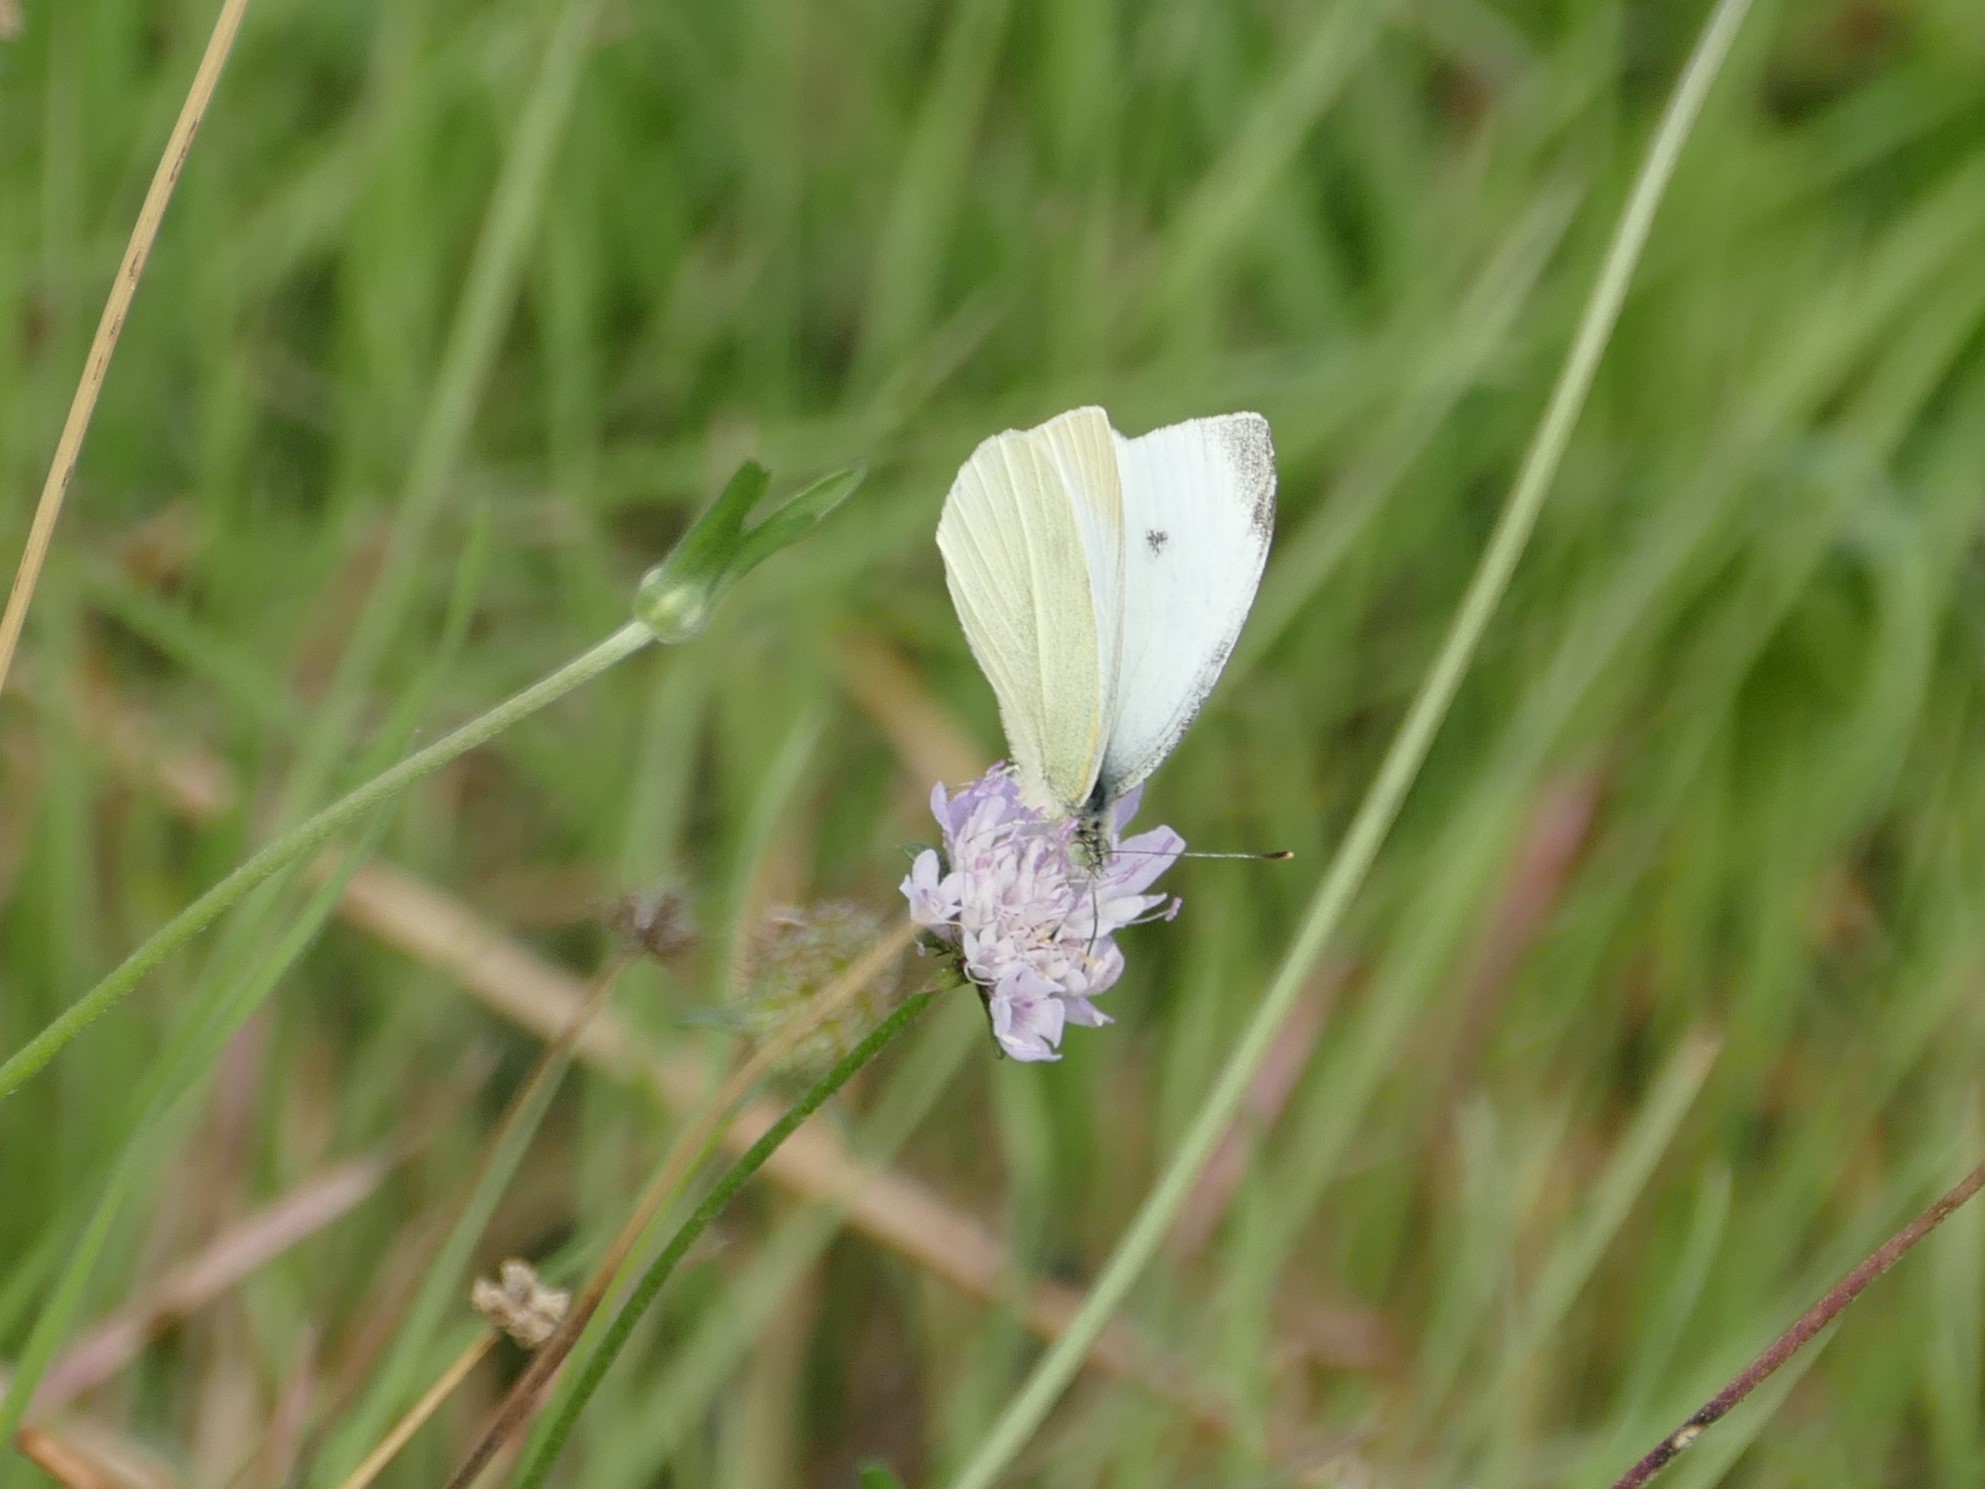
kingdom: Animalia
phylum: Arthropoda
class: Insecta
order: Lepidoptera
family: Pieridae
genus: Pieris
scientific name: Pieris rapae
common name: Small white
